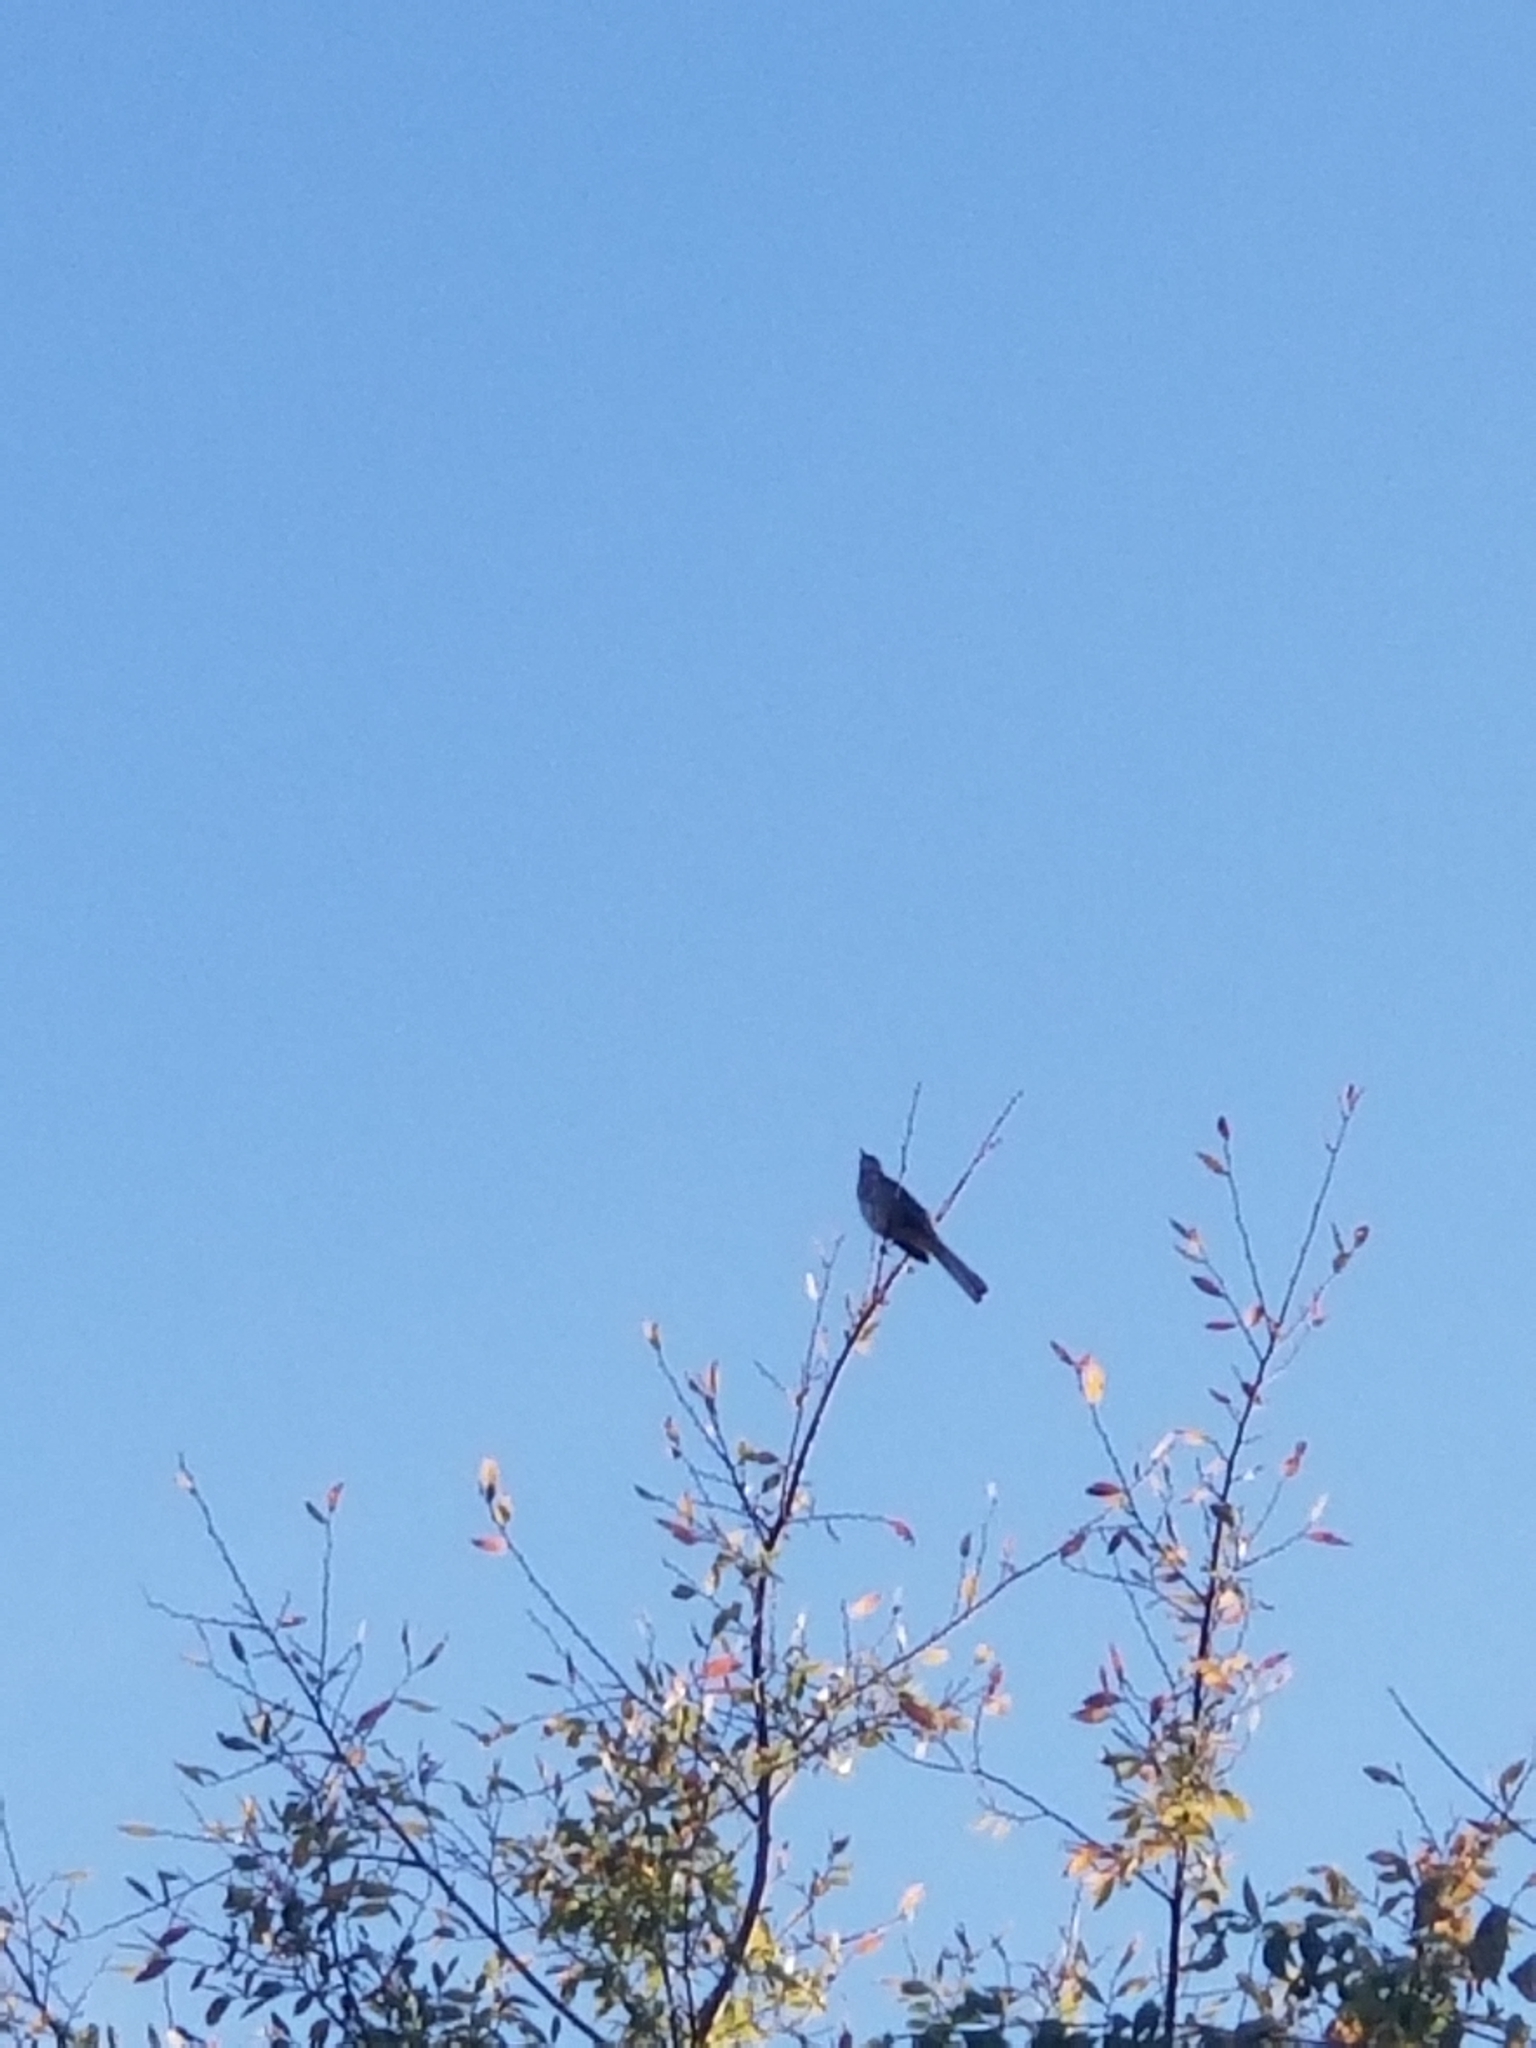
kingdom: Animalia
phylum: Chordata
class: Aves
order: Passeriformes
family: Mimidae
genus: Mimus
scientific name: Mimus polyglottos
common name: Northern mockingbird
